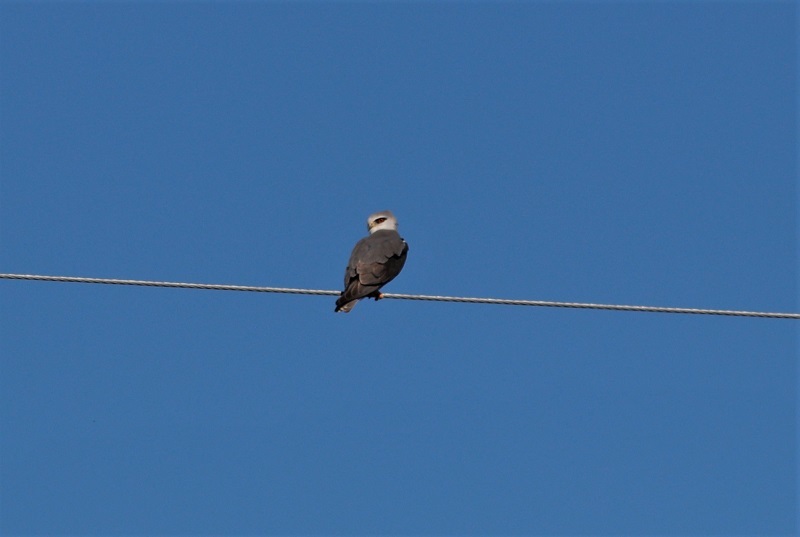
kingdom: Animalia
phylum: Chordata
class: Aves
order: Accipitriformes
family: Accipitridae
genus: Elanus
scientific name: Elanus caeruleus
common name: Black-winged kite
